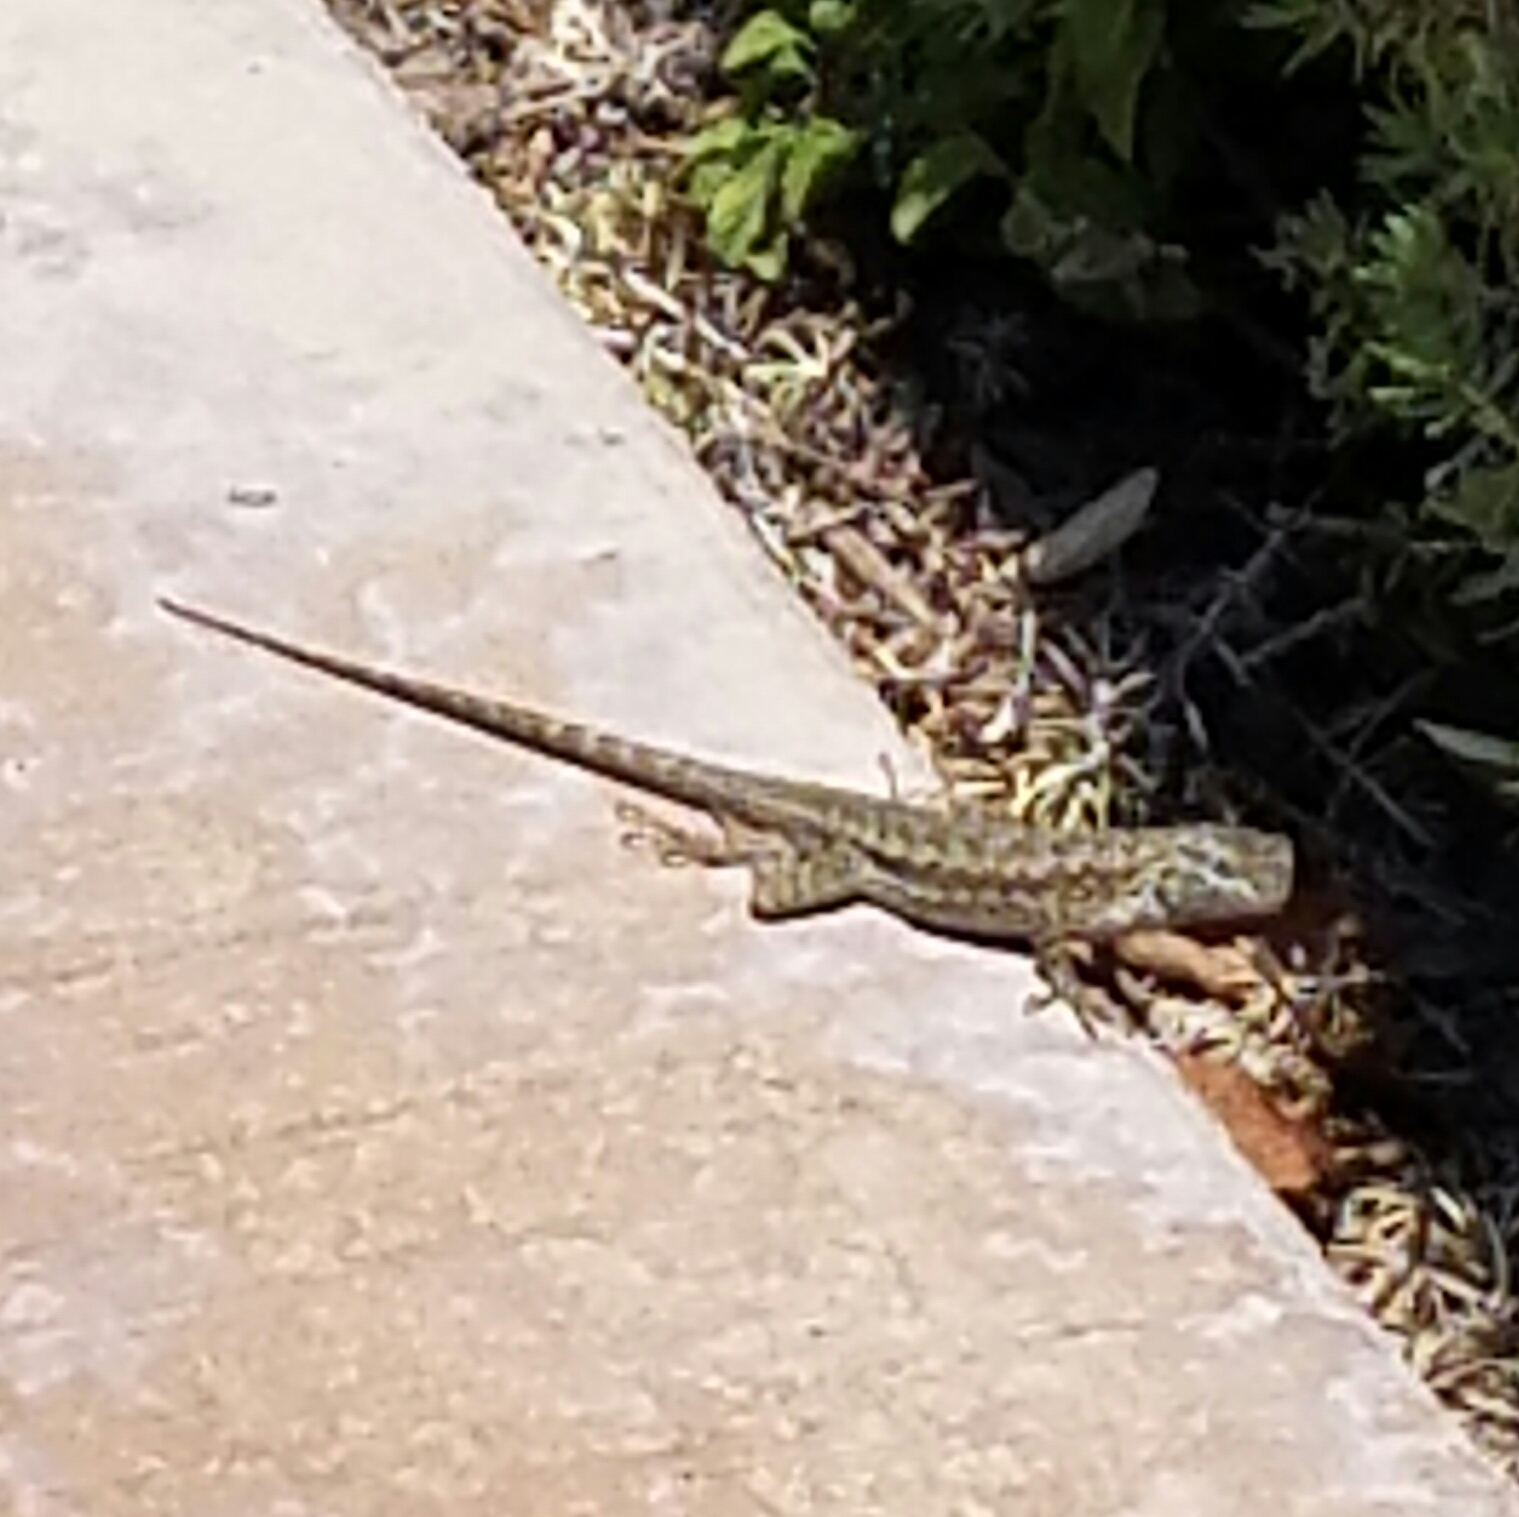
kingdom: Animalia
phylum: Chordata
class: Squamata
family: Phrynosomatidae
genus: Sceloporus
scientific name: Sceloporus occidentalis
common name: Western fence lizard
